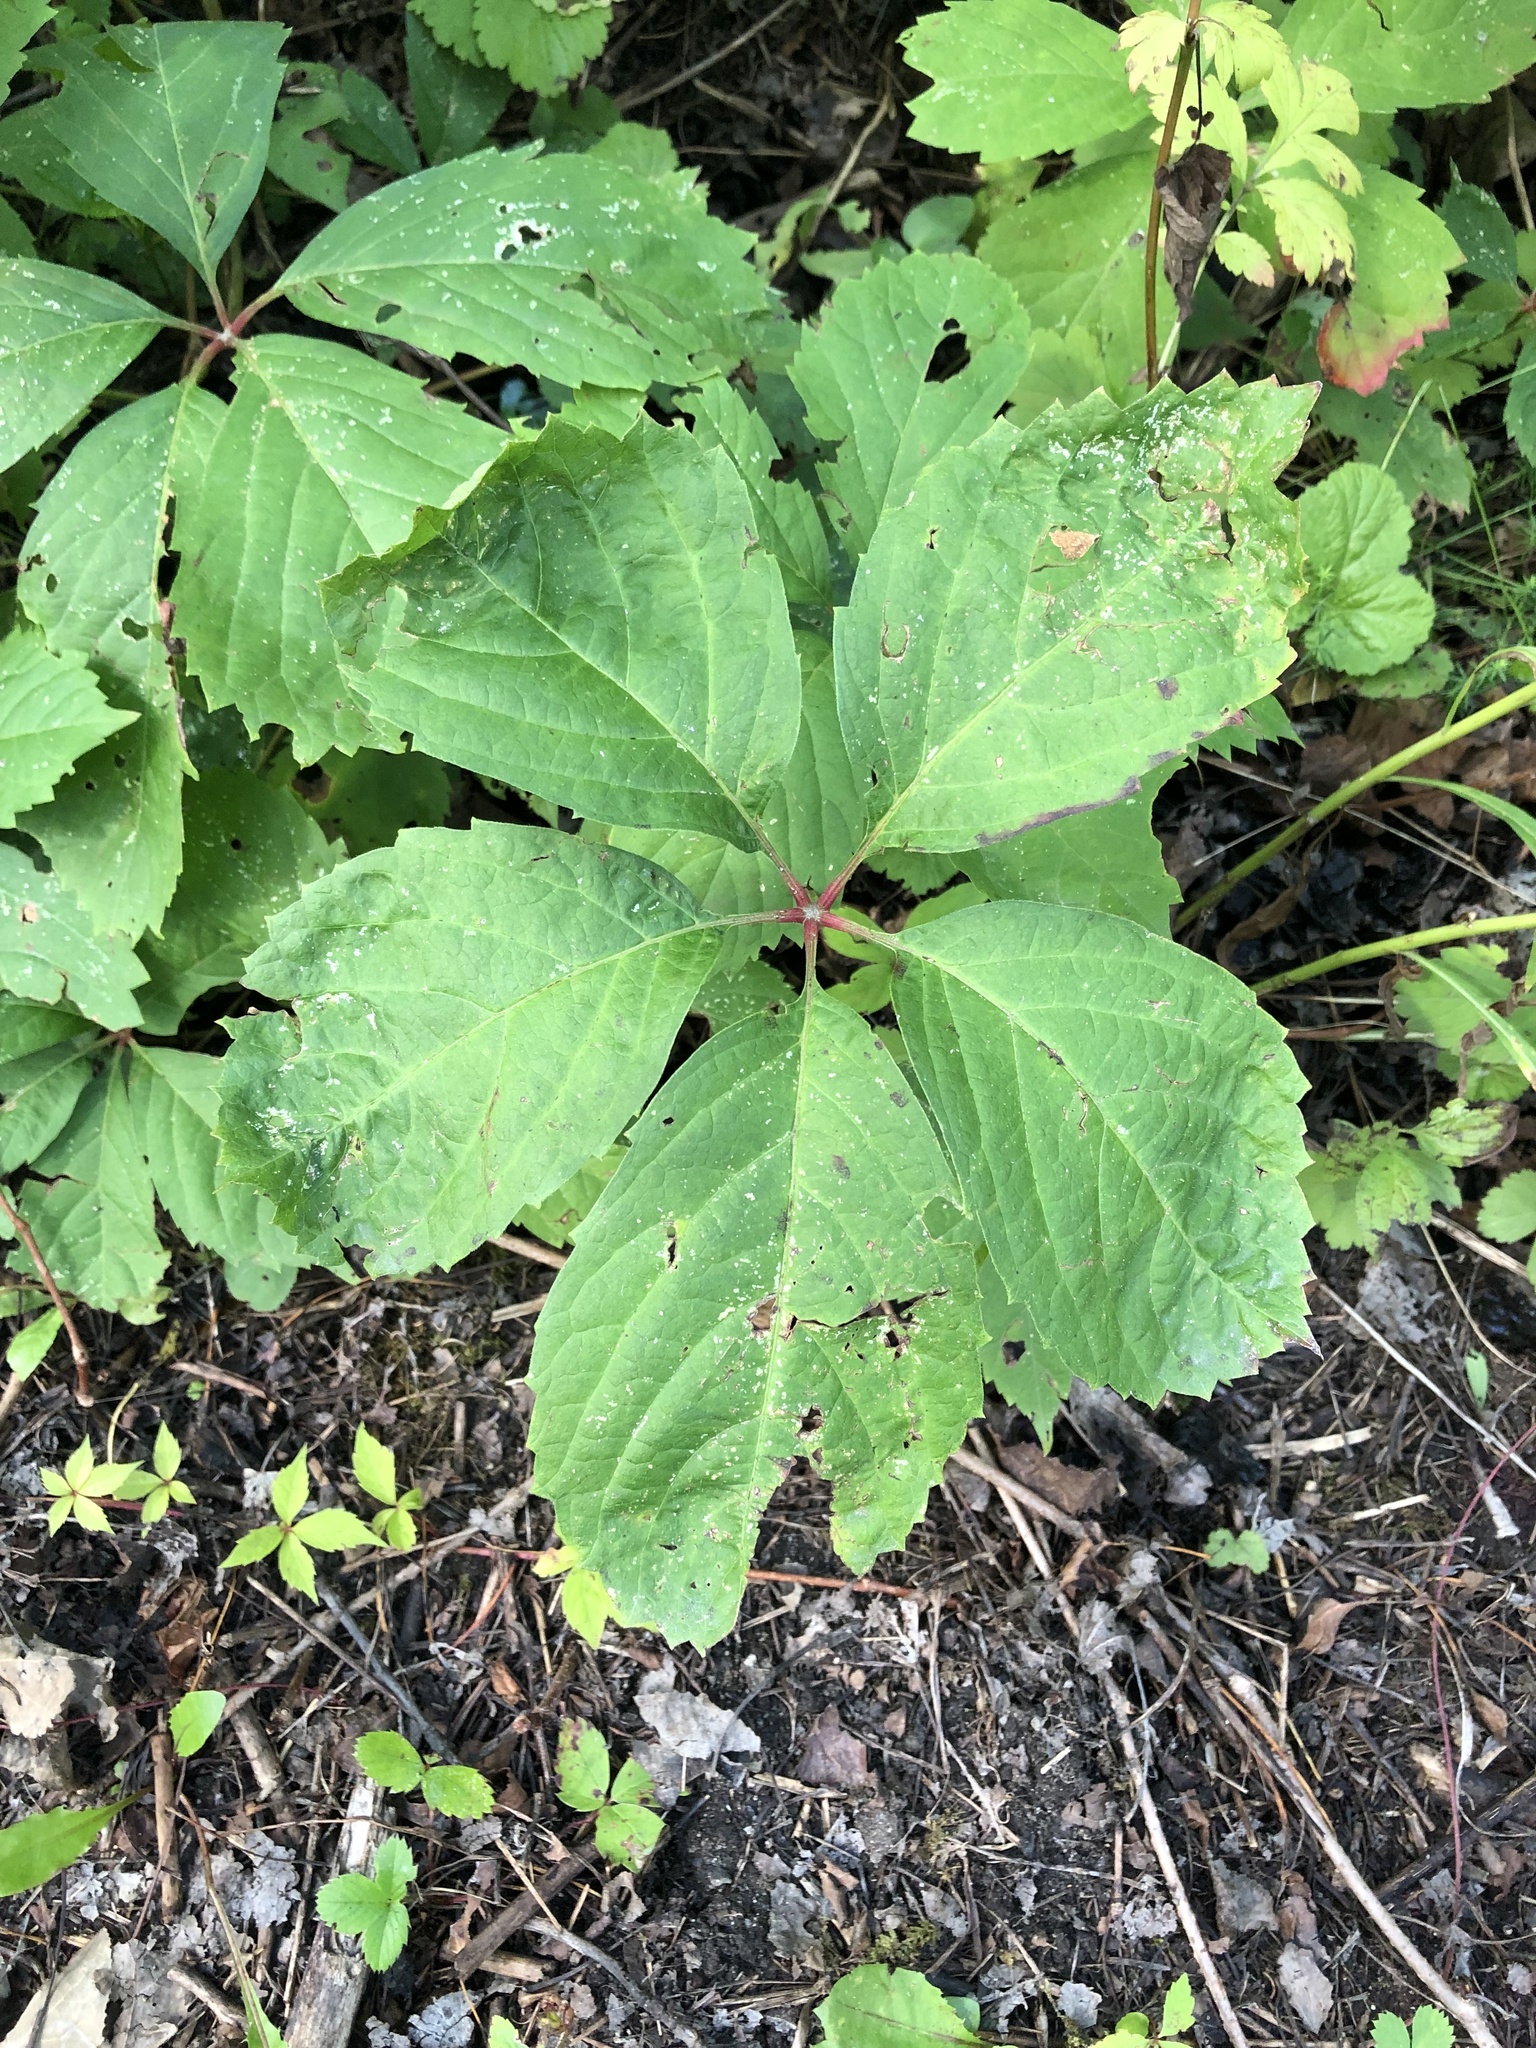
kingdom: Plantae
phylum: Tracheophyta
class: Magnoliopsida
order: Vitales
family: Vitaceae
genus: Parthenocissus
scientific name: Parthenocissus inserta
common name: False virginia-creeper
